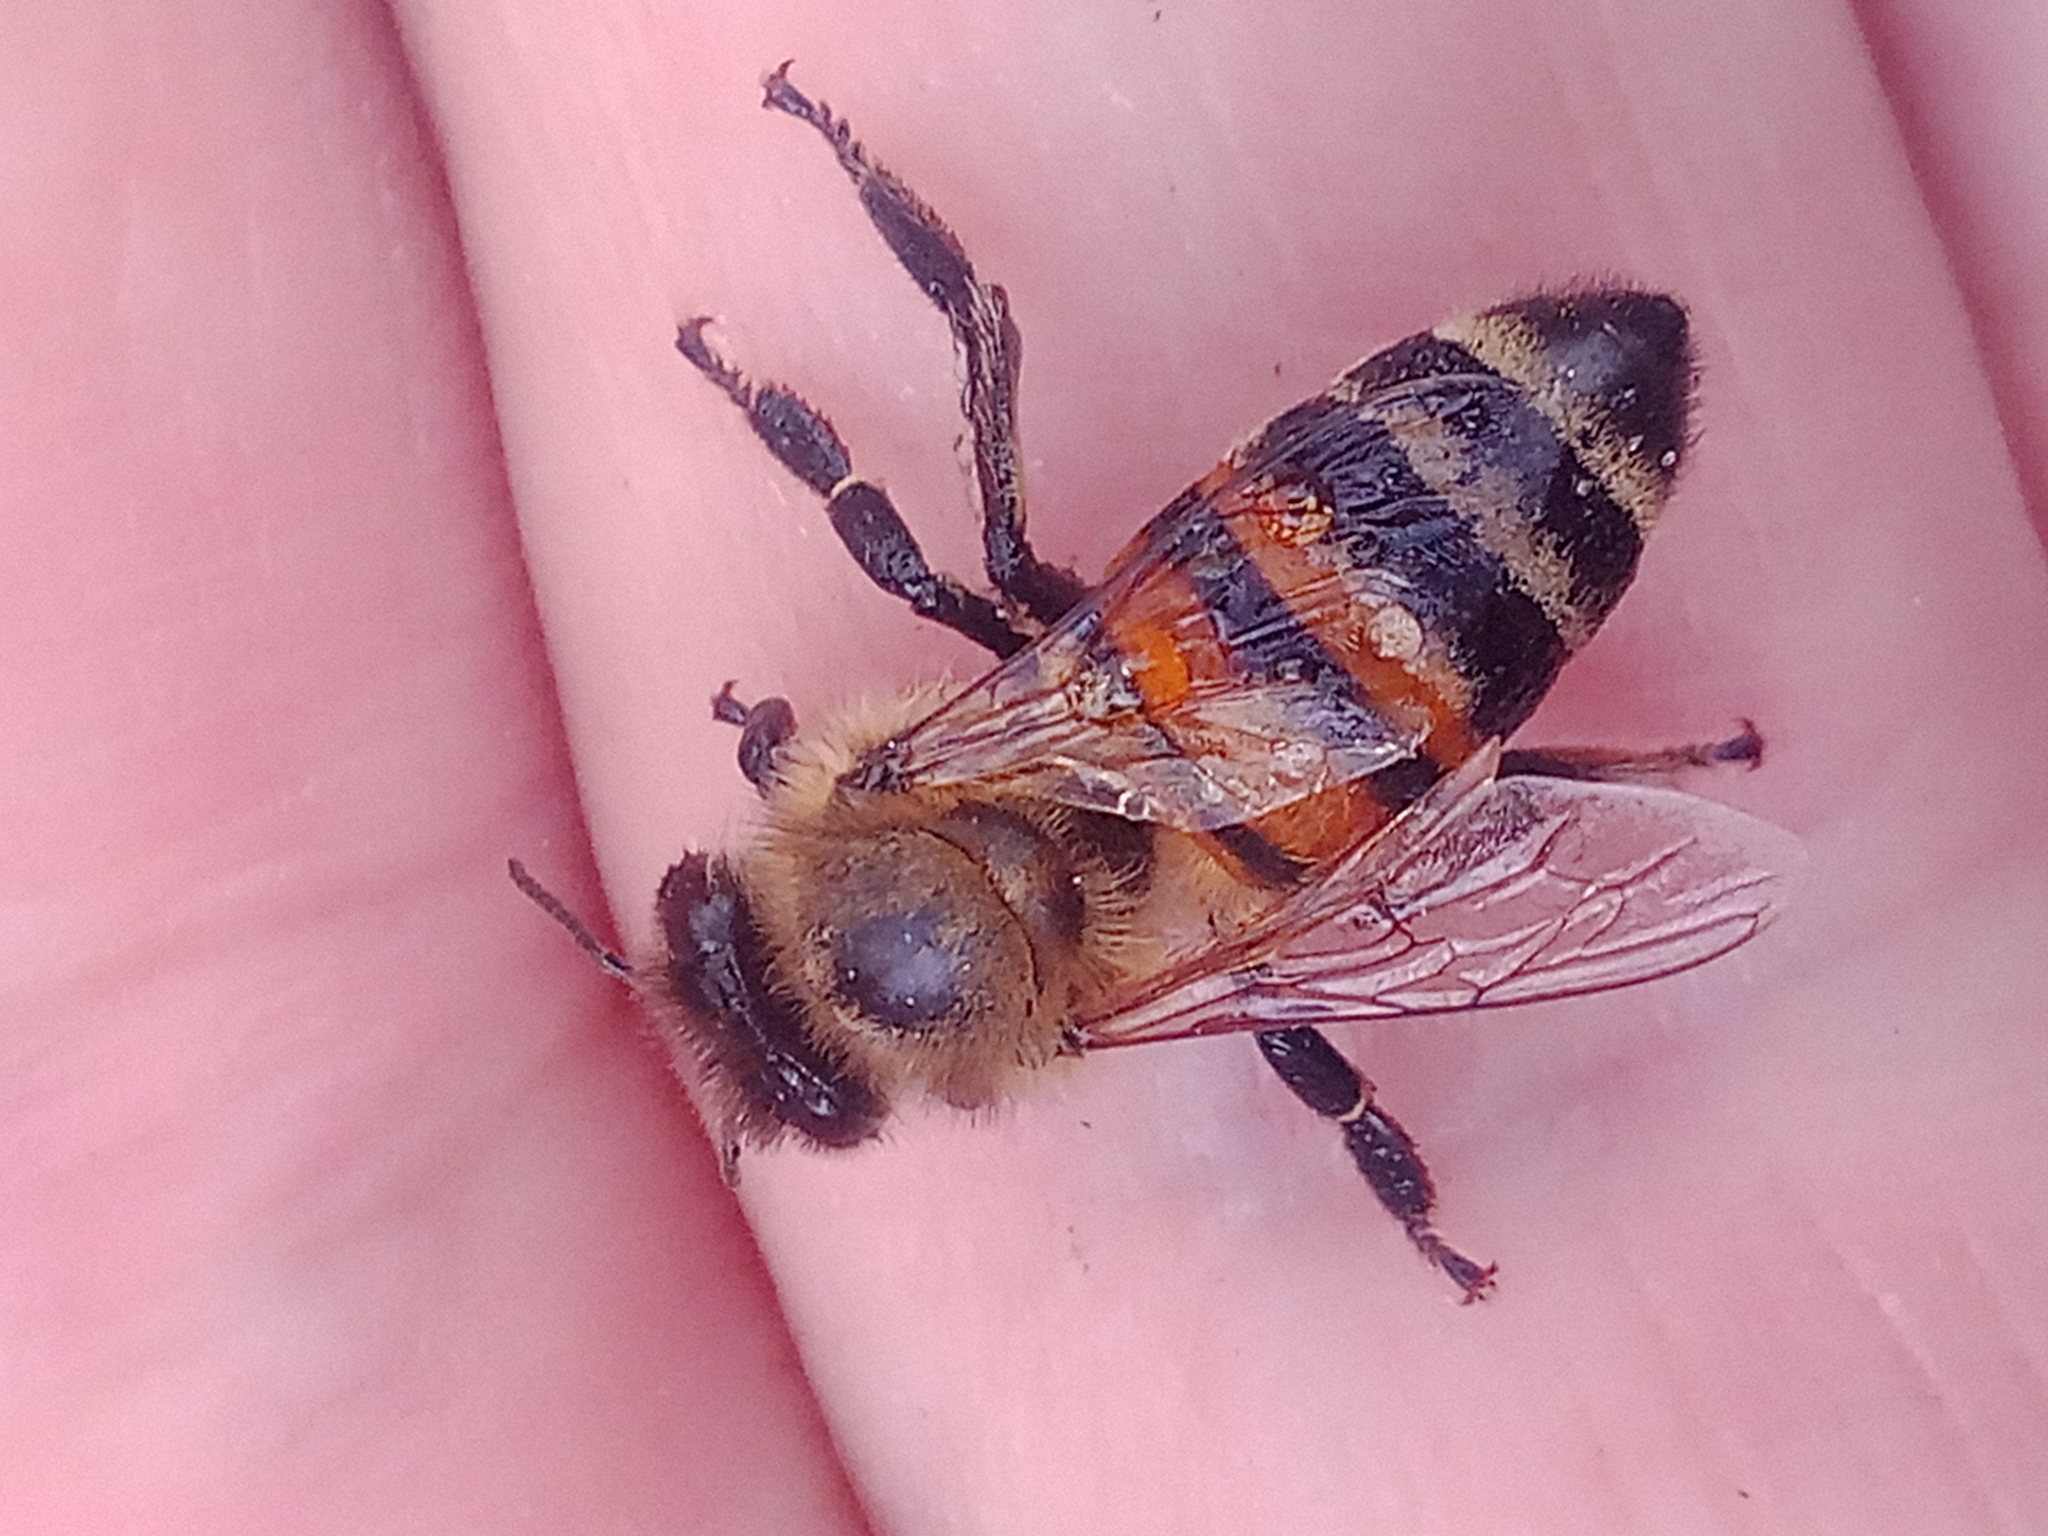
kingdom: Animalia
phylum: Arthropoda
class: Insecta
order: Hymenoptera
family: Apidae
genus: Apis
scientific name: Apis mellifera
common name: Honey bee
